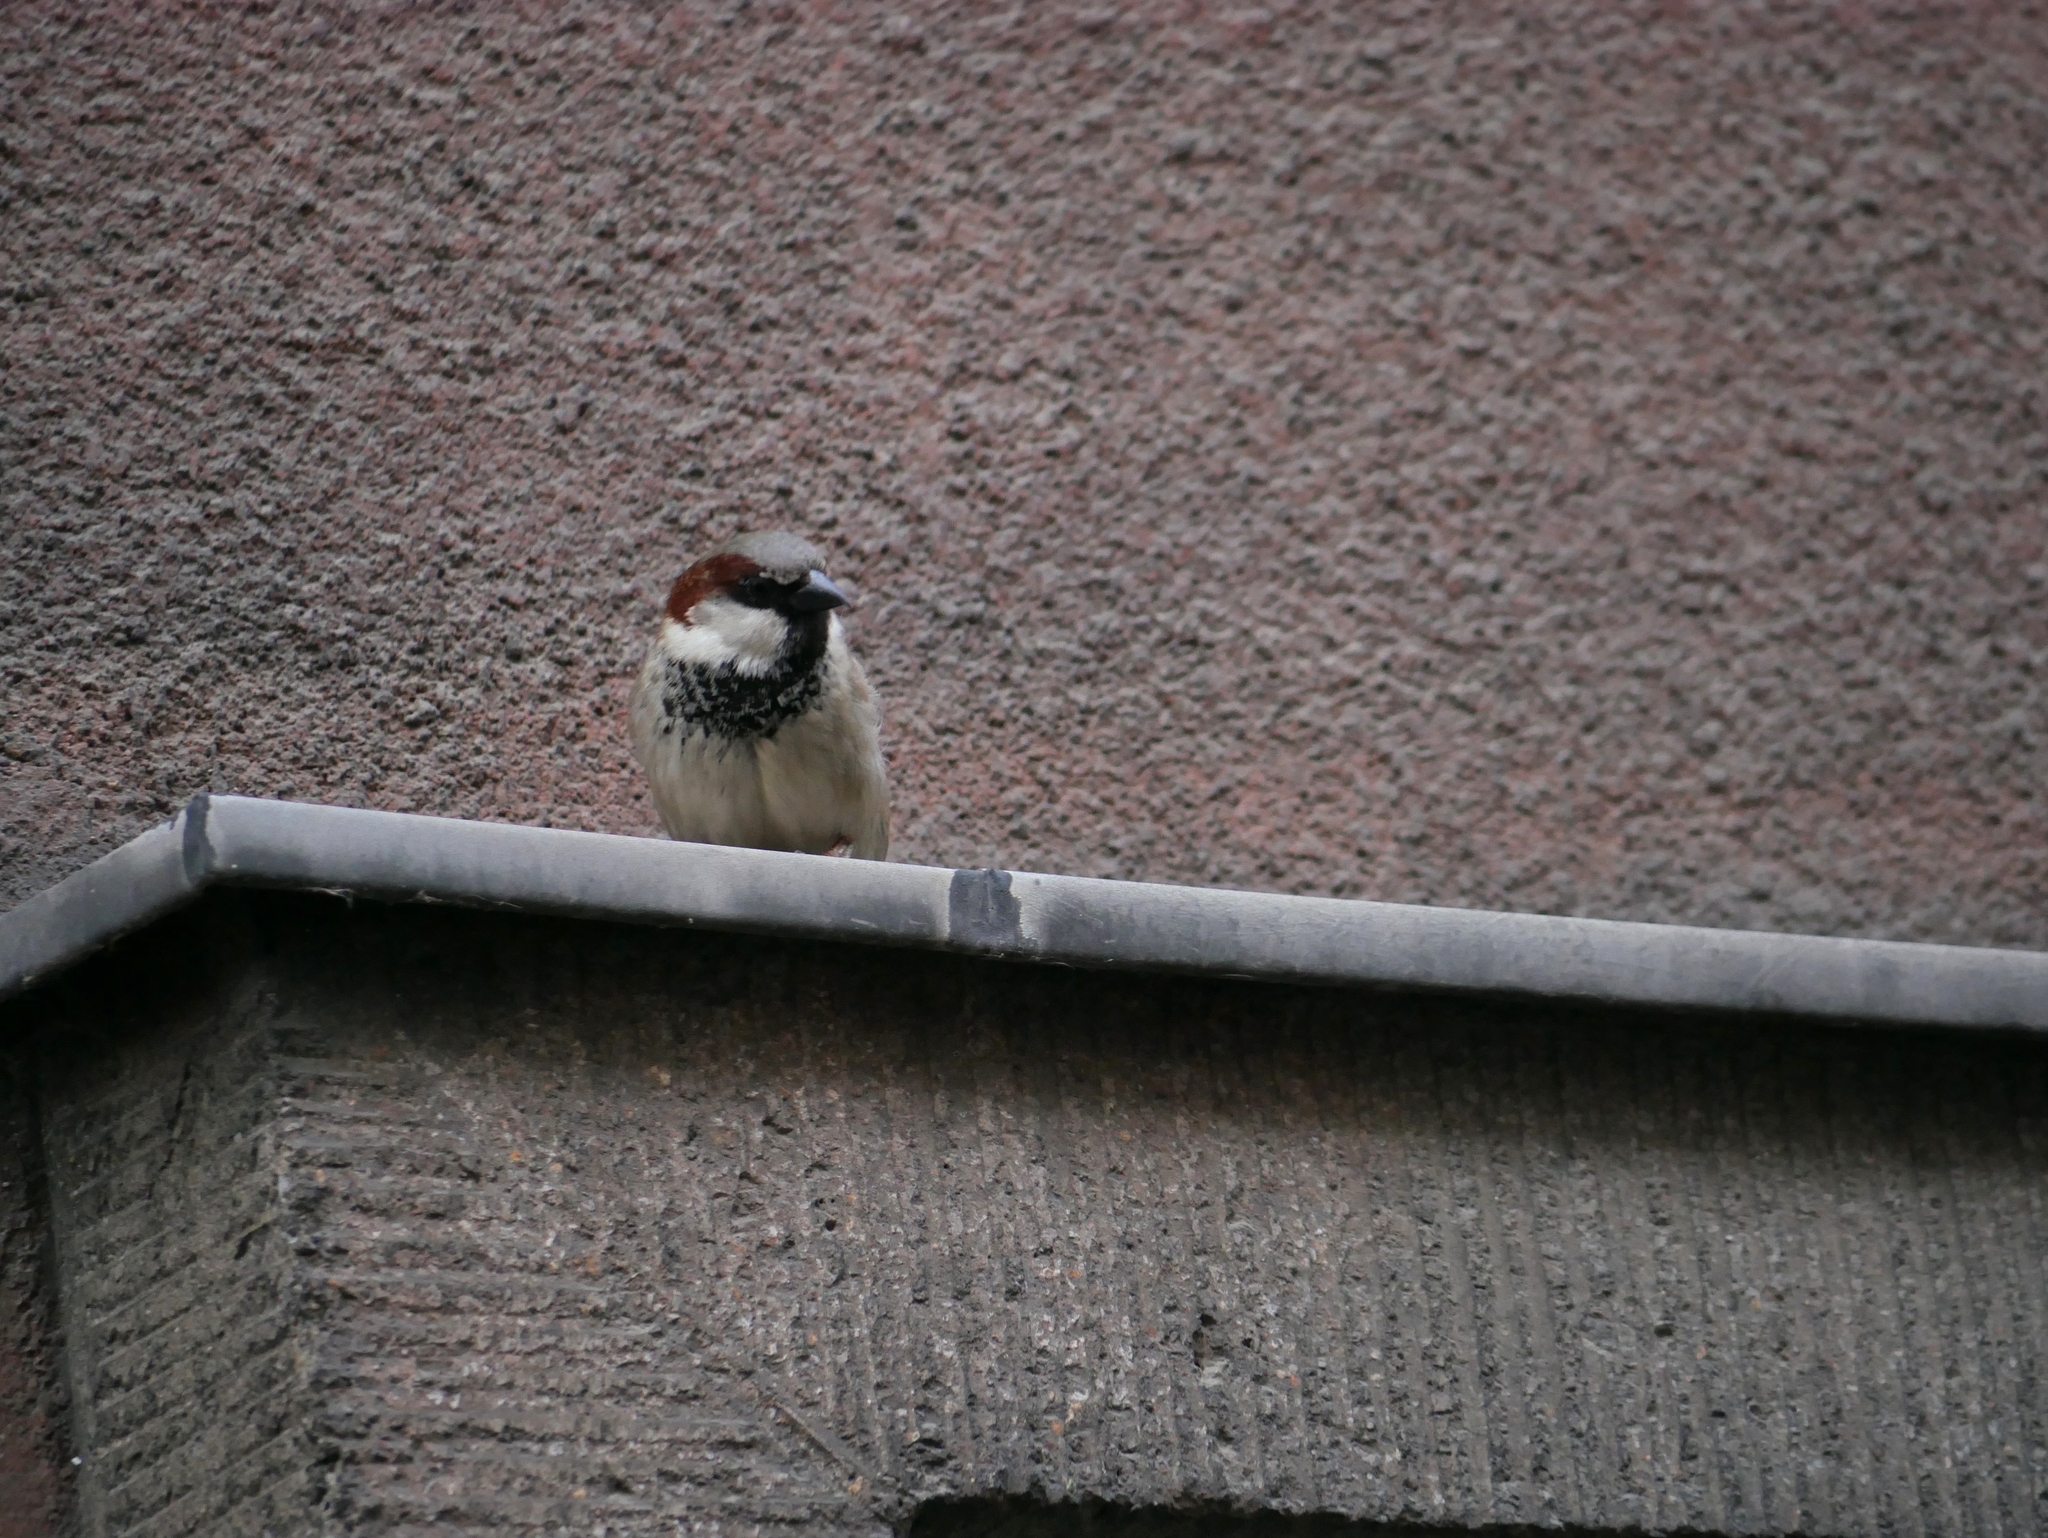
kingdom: Animalia
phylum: Chordata
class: Aves
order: Passeriformes
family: Passeridae
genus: Passer
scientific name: Passer domesticus
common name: House sparrow
